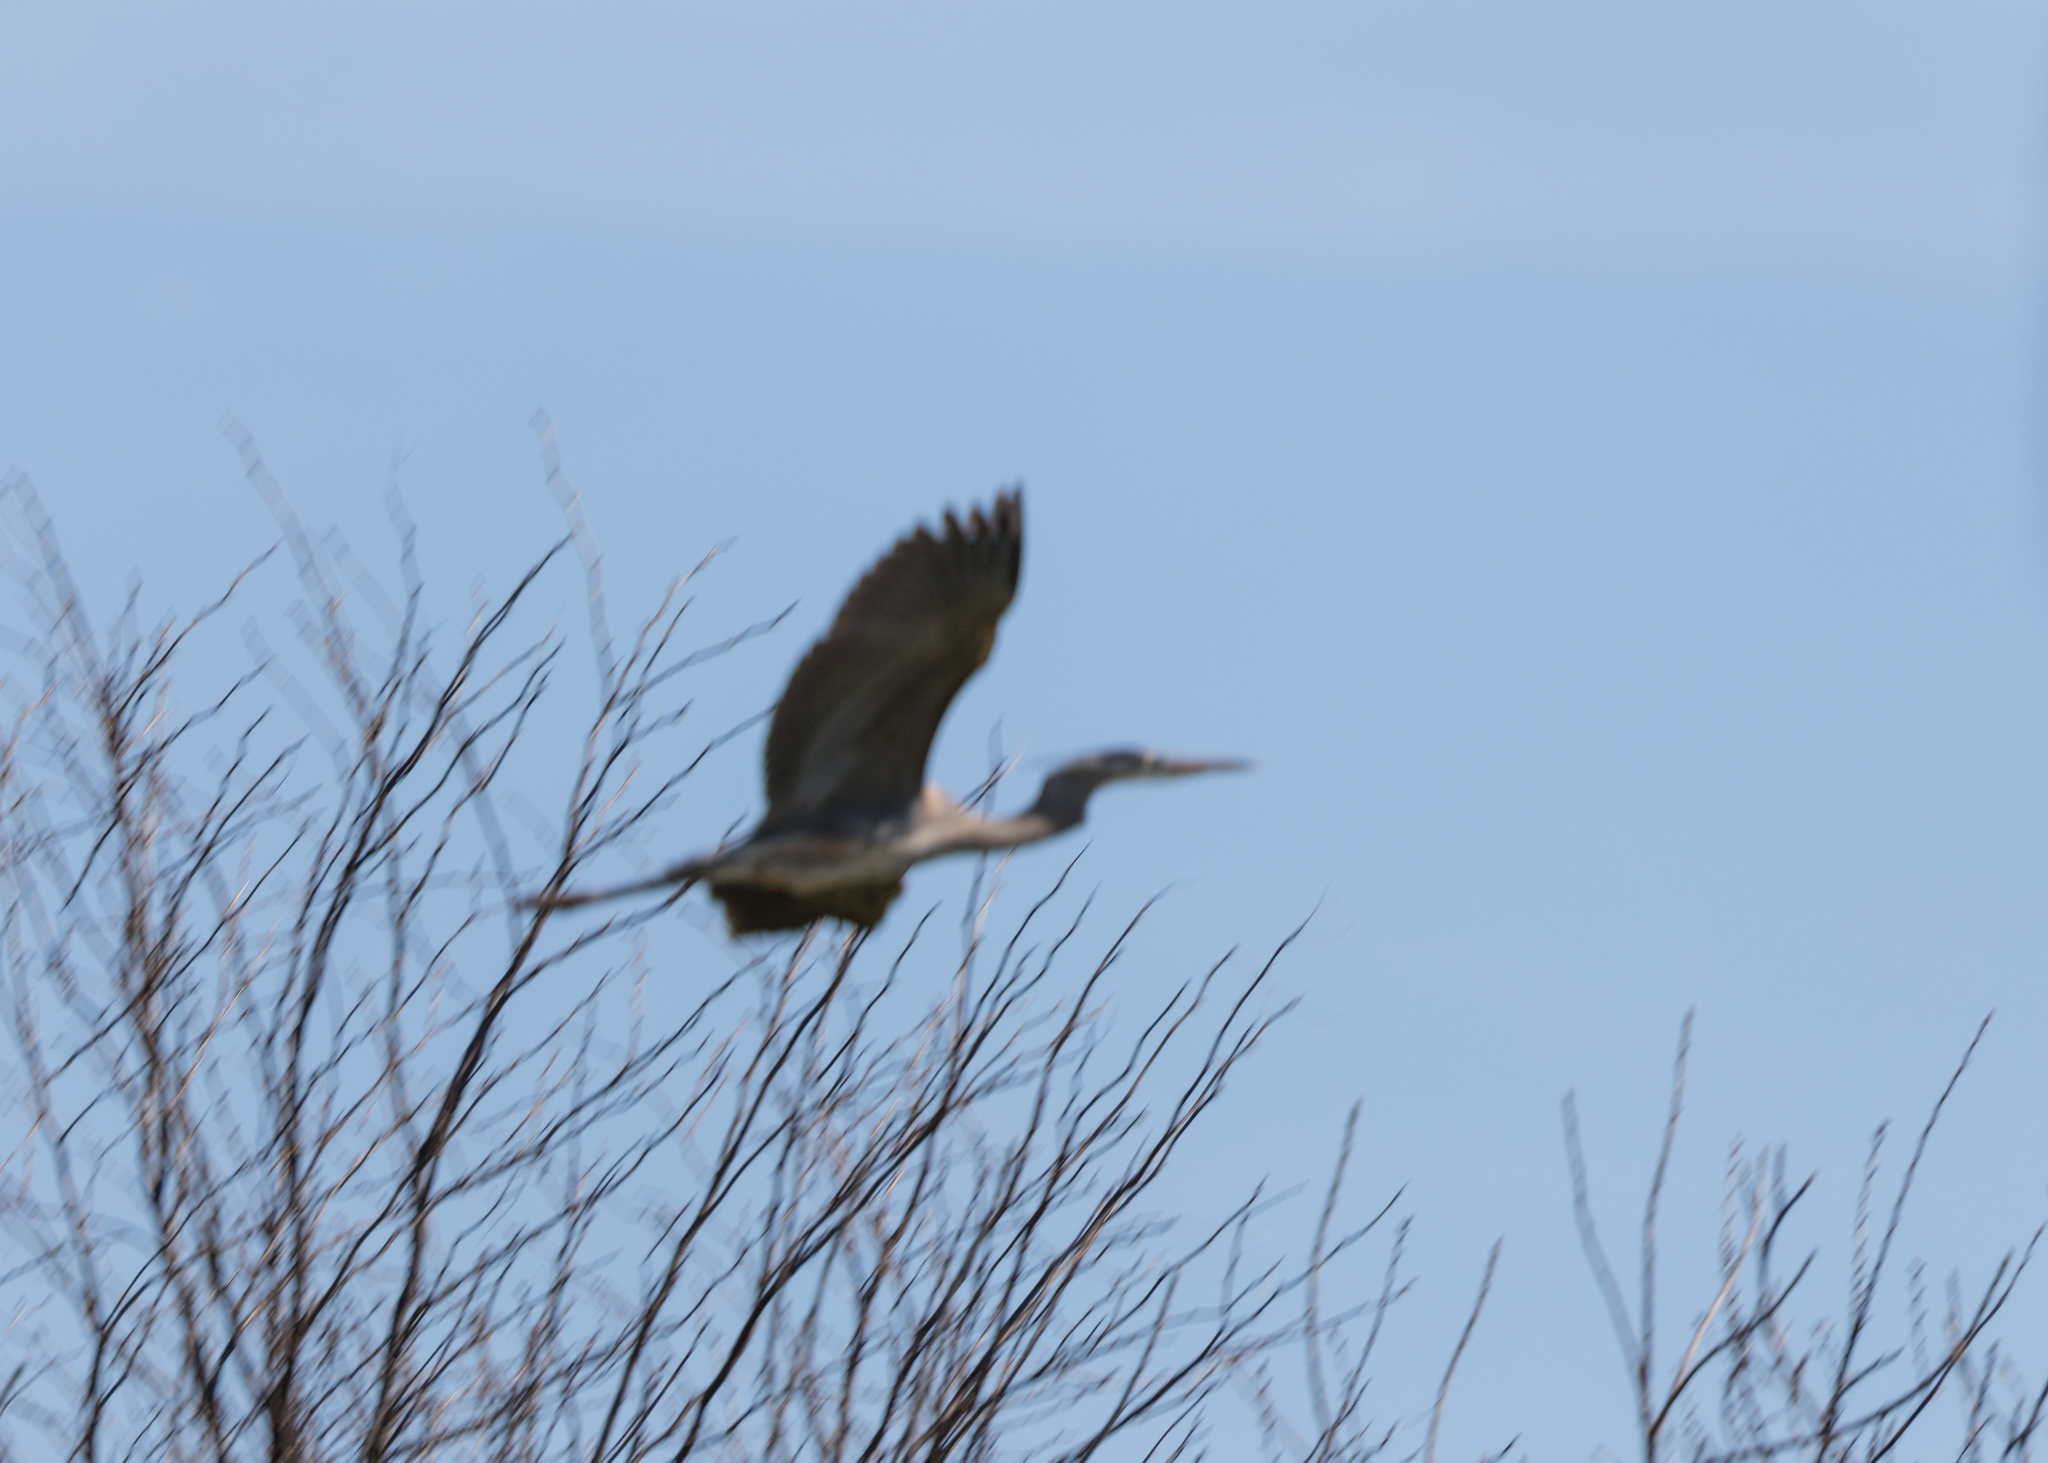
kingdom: Animalia
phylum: Chordata
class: Aves
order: Pelecaniformes
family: Ardeidae
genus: Ardea
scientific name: Ardea herodias
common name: Great blue heron
